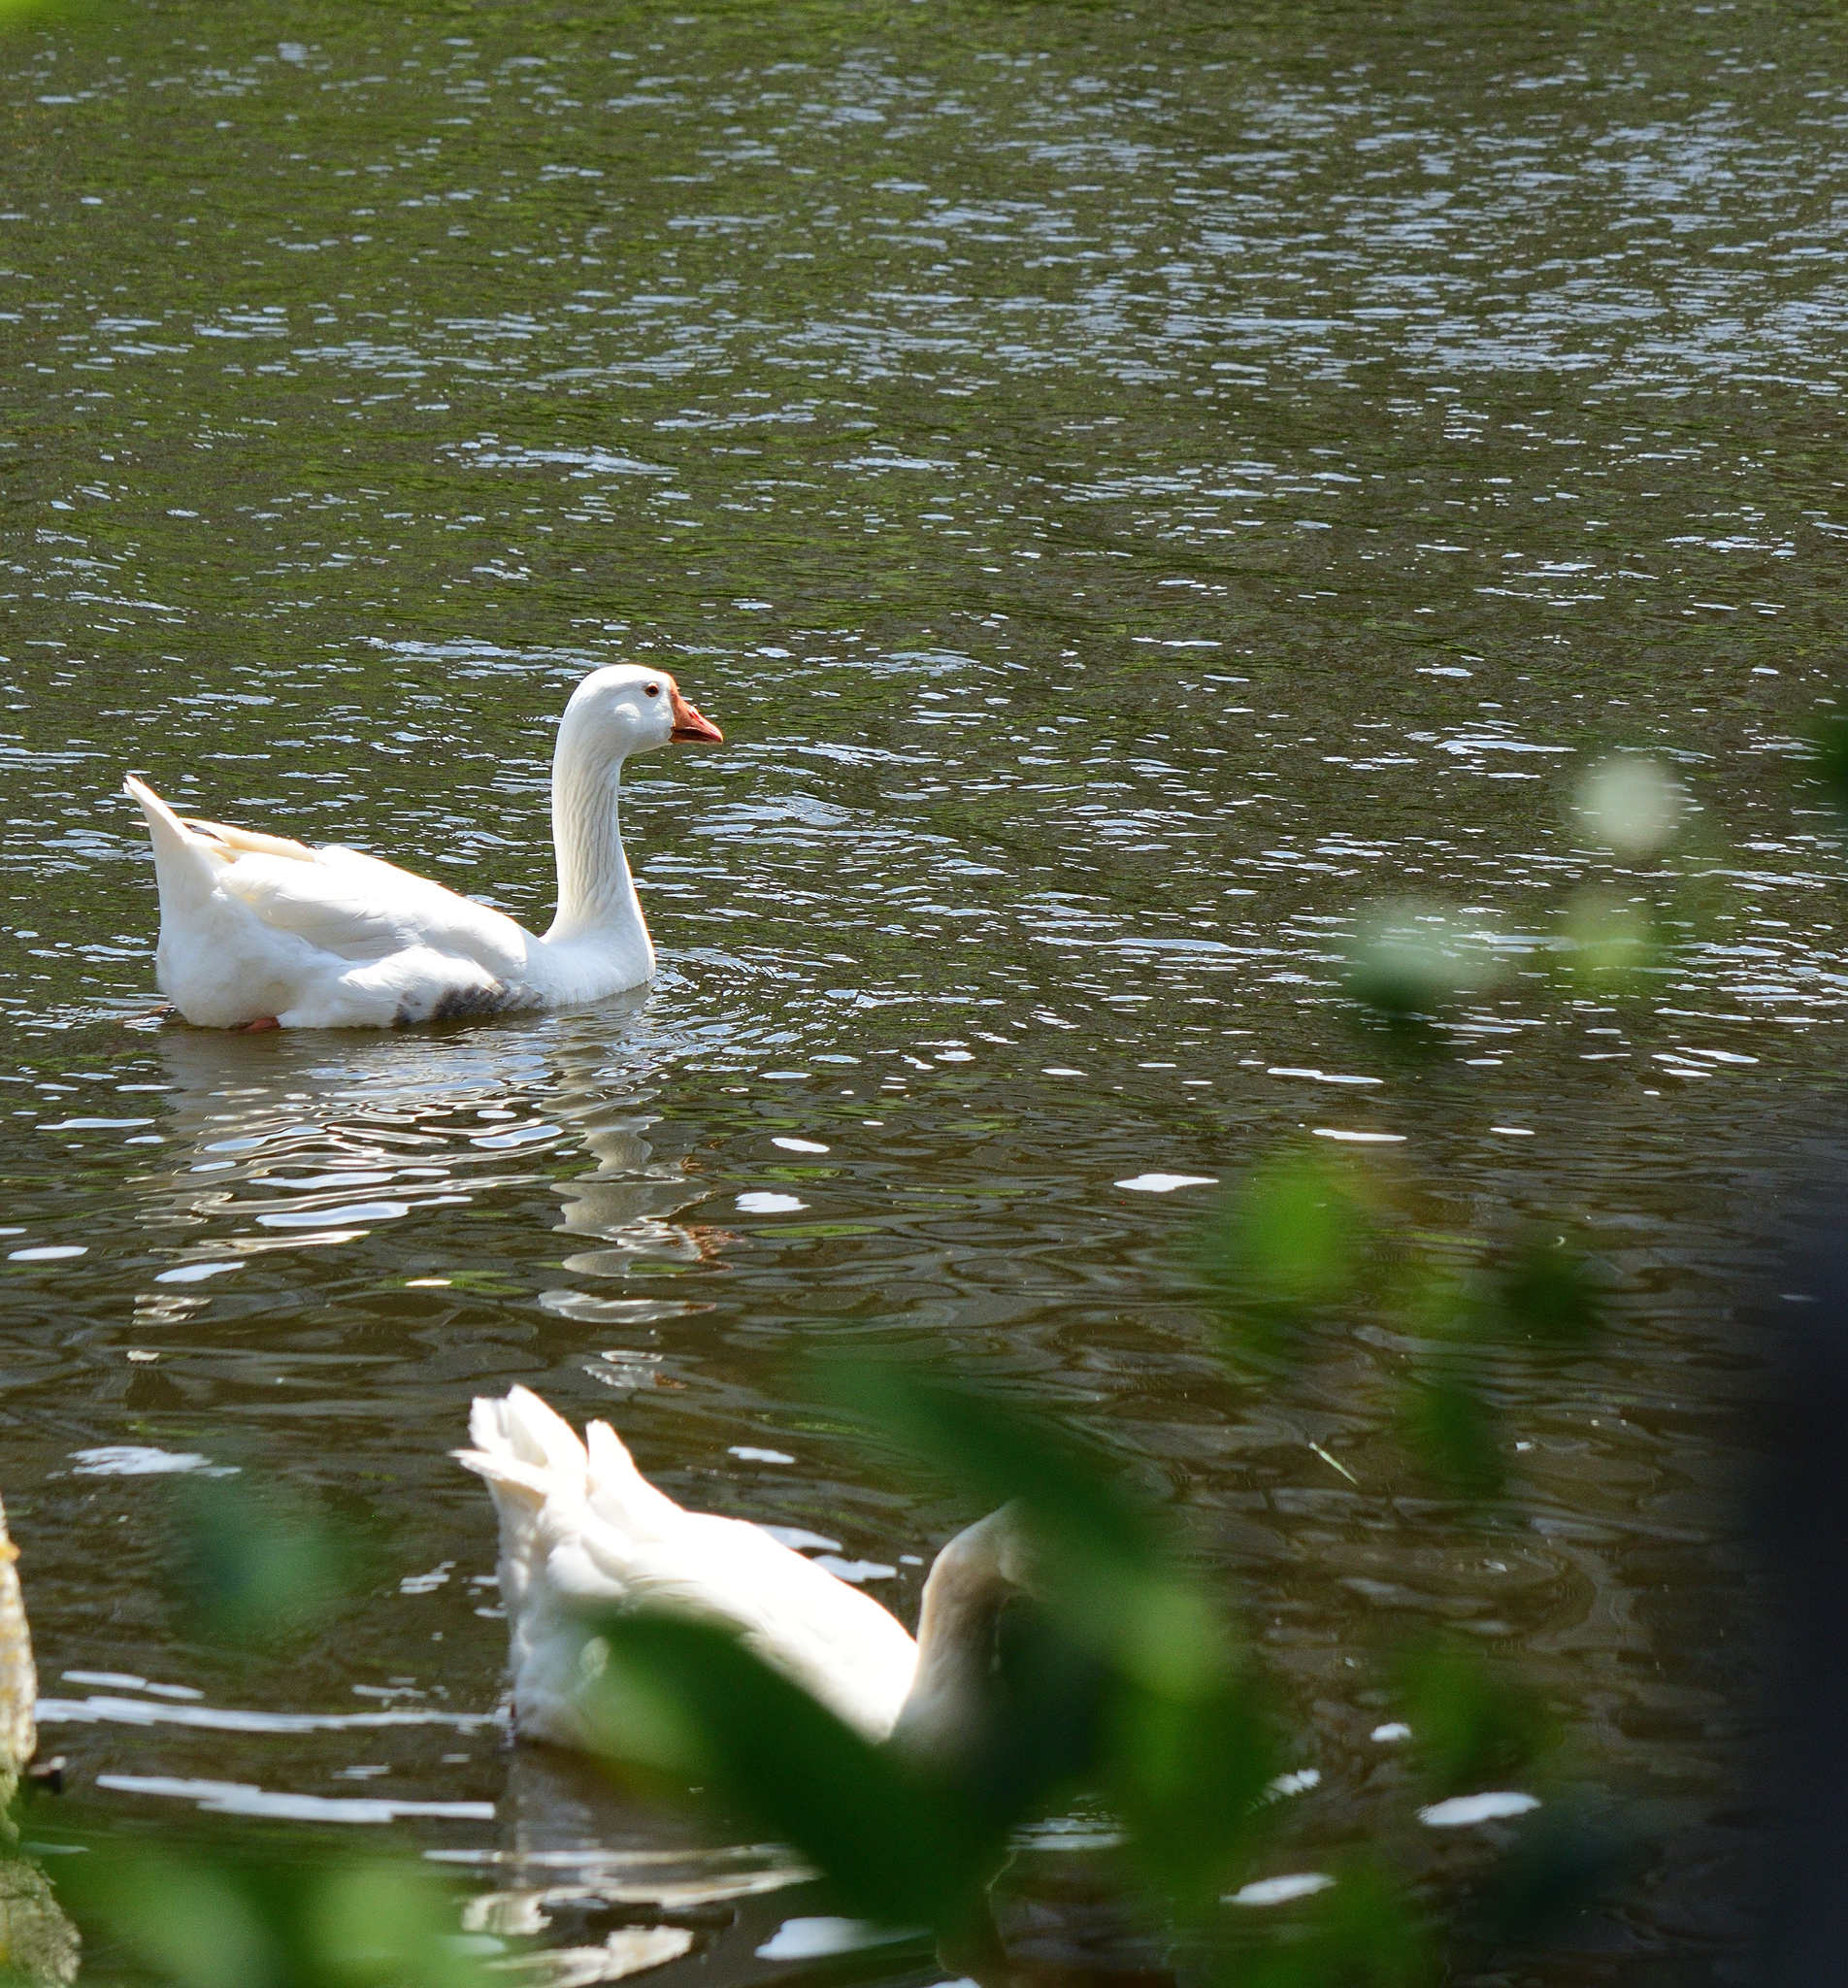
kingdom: Animalia
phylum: Chordata
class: Aves
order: Anseriformes
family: Anatidae
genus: Anser
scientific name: Anser anser
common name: Greylag goose
